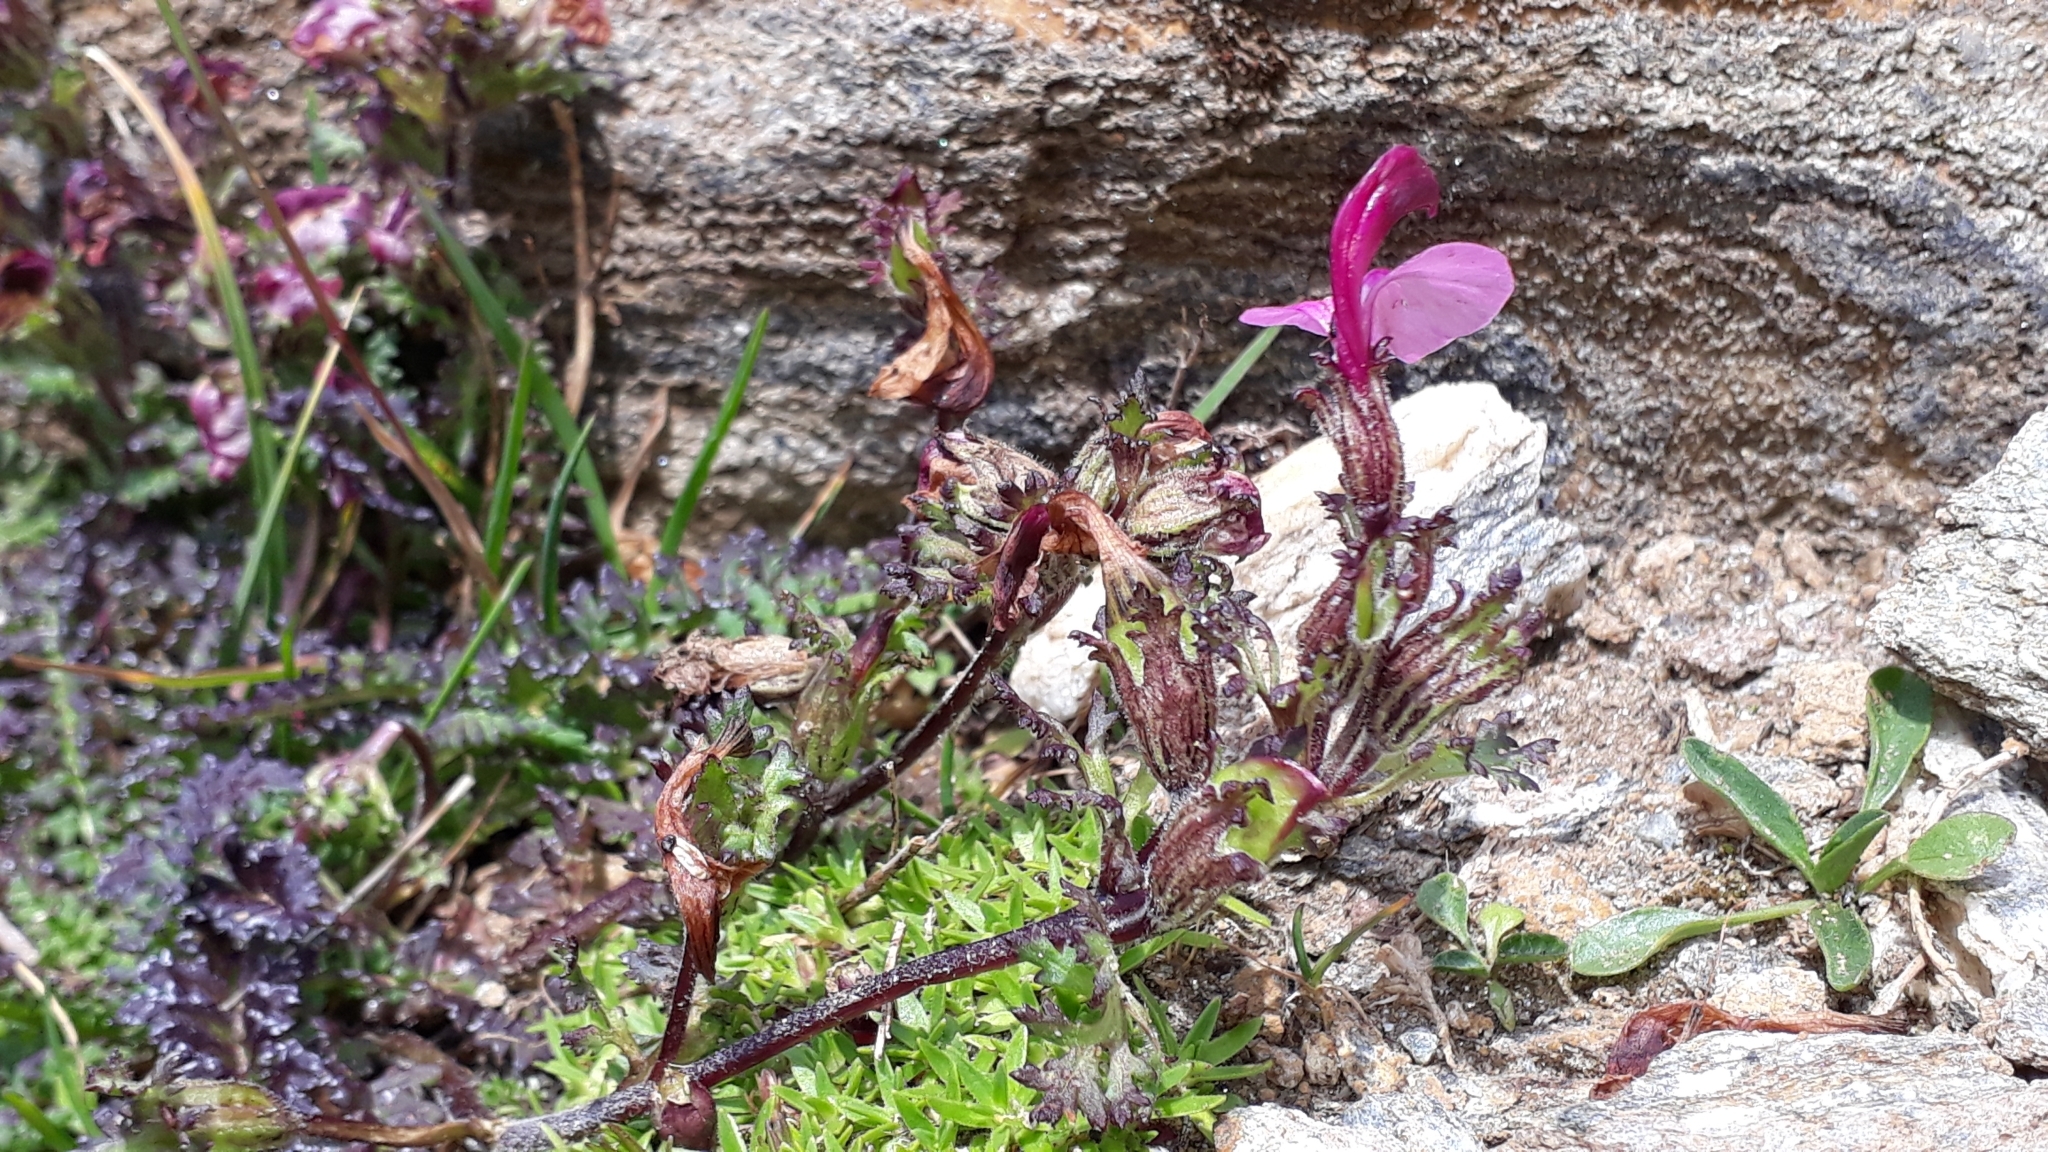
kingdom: Plantae
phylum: Tracheophyta
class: Magnoliopsida
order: Lamiales
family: Orobanchaceae
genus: Pedicularis
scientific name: Pedicularis kerneri
